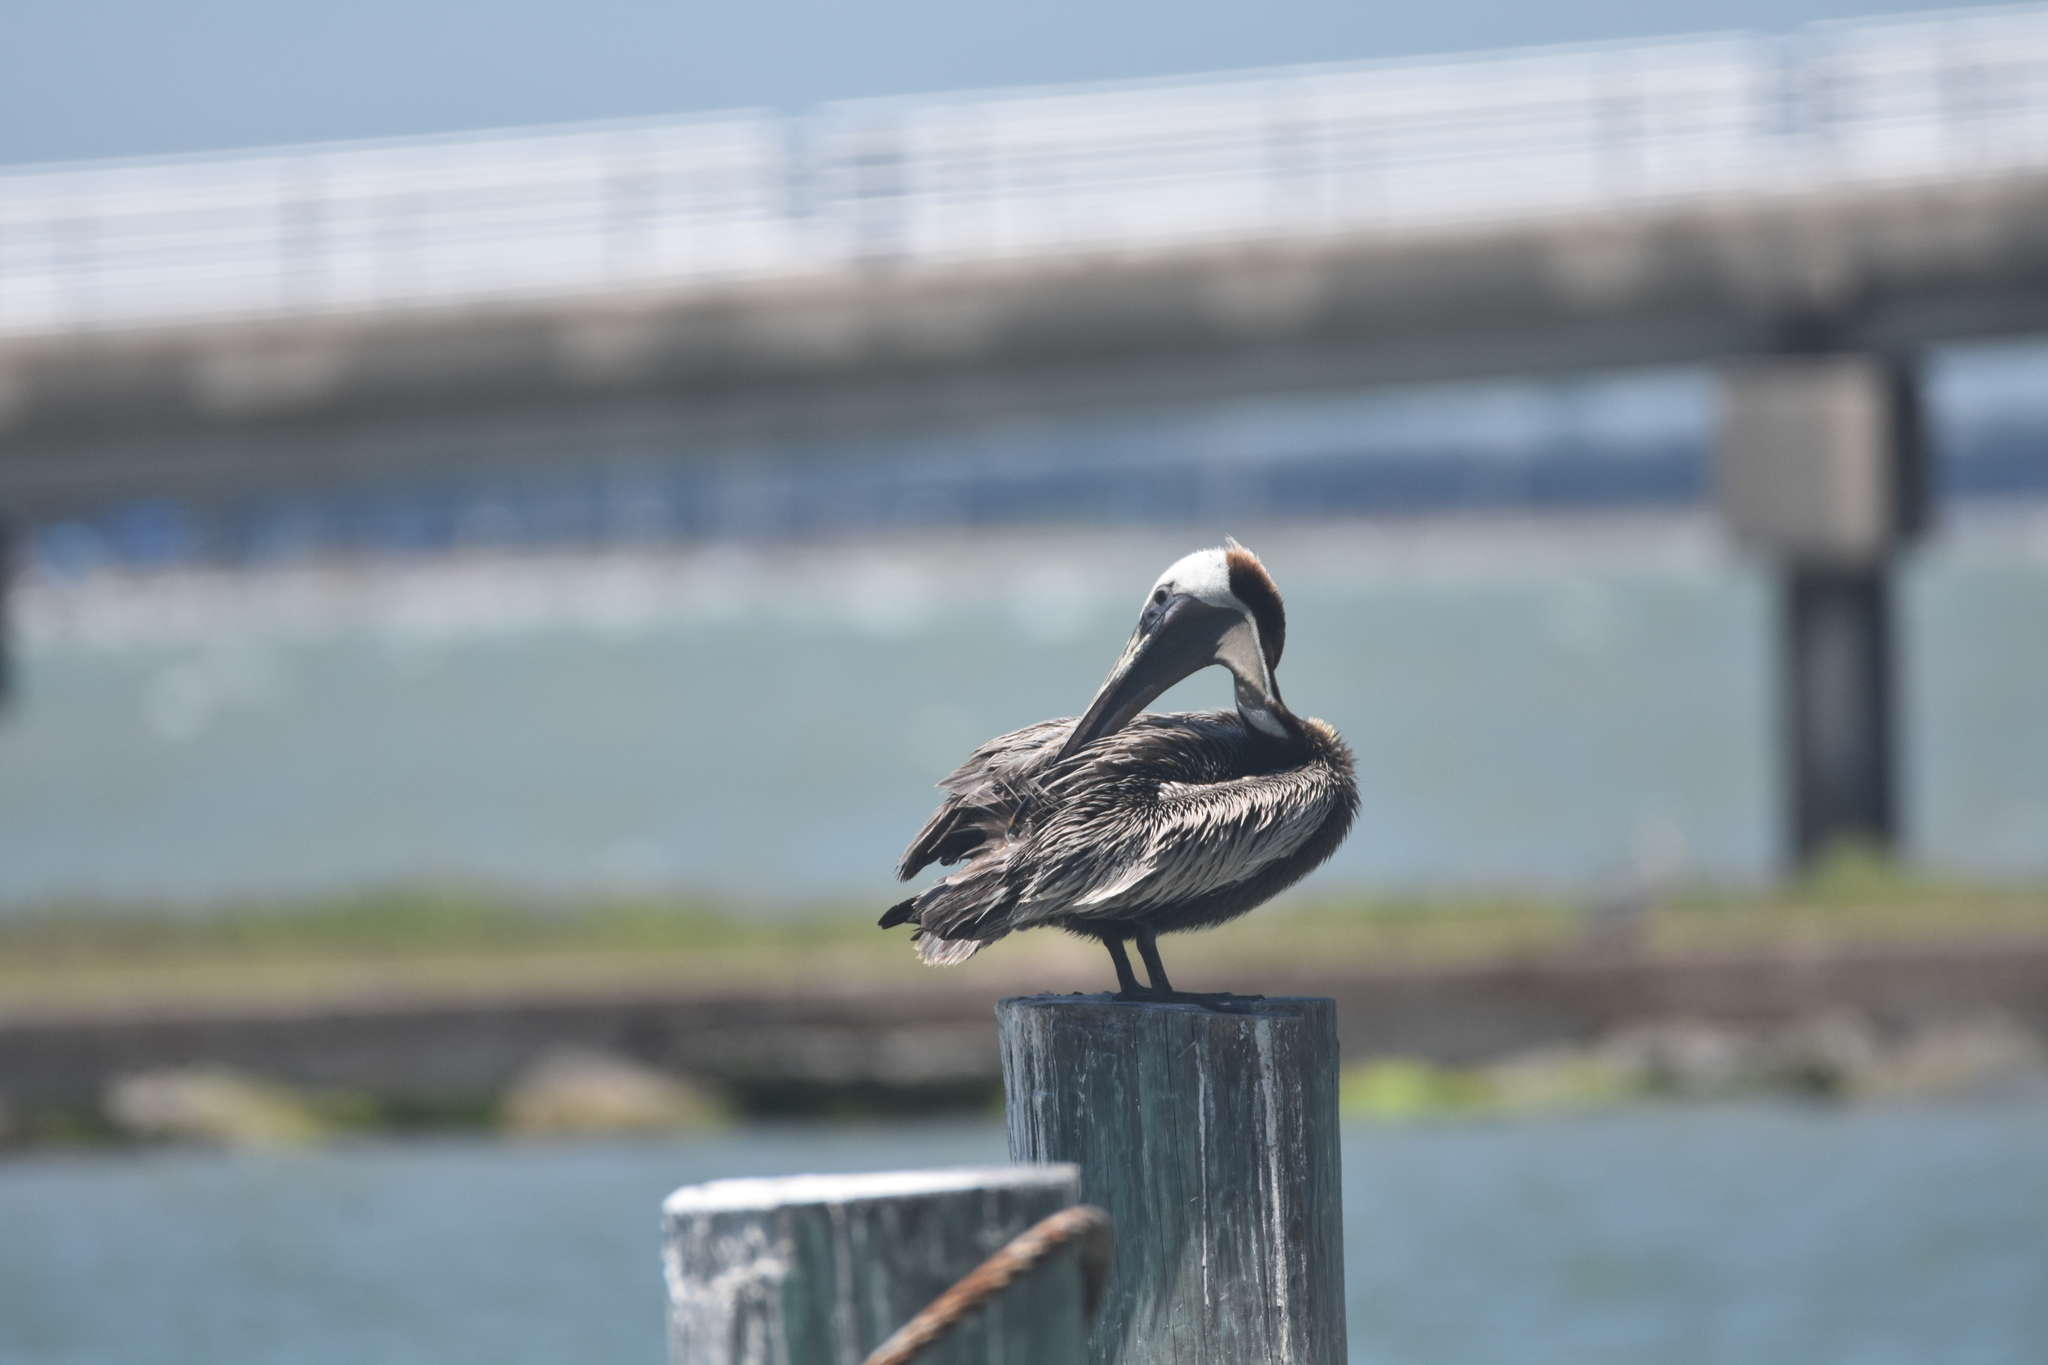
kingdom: Animalia
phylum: Chordata
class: Aves
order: Pelecaniformes
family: Pelecanidae
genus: Pelecanus
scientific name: Pelecanus occidentalis
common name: Brown pelican
